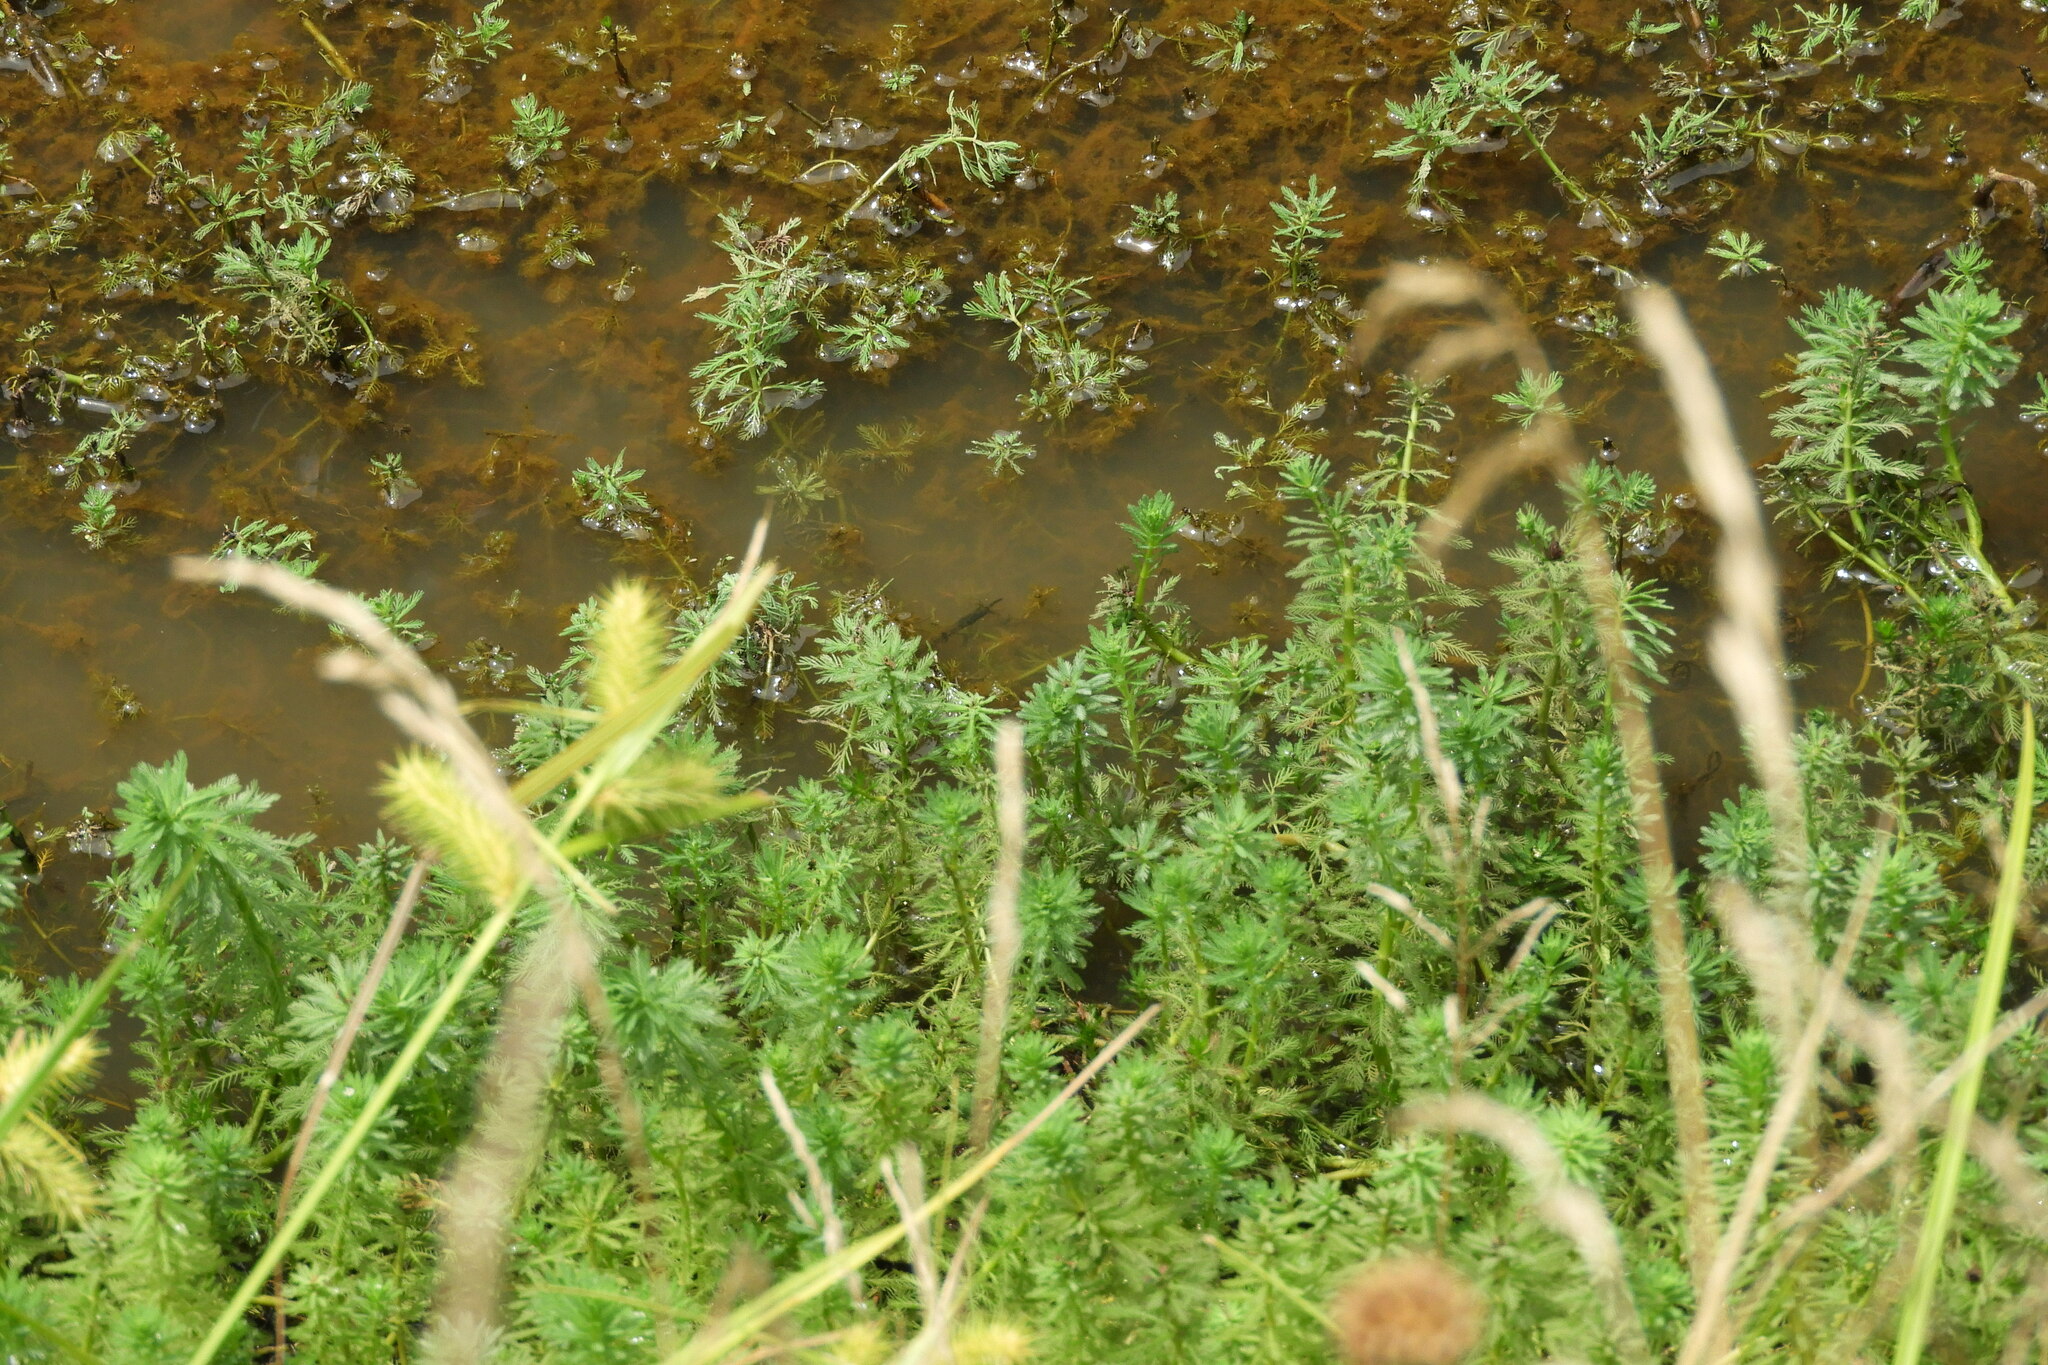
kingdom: Plantae
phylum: Tracheophyta
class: Magnoliopsida
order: Saxifragales
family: Haloragaceae
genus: Myriophyllum
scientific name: Myriophyllum aquaticum
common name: Parrot's feather
